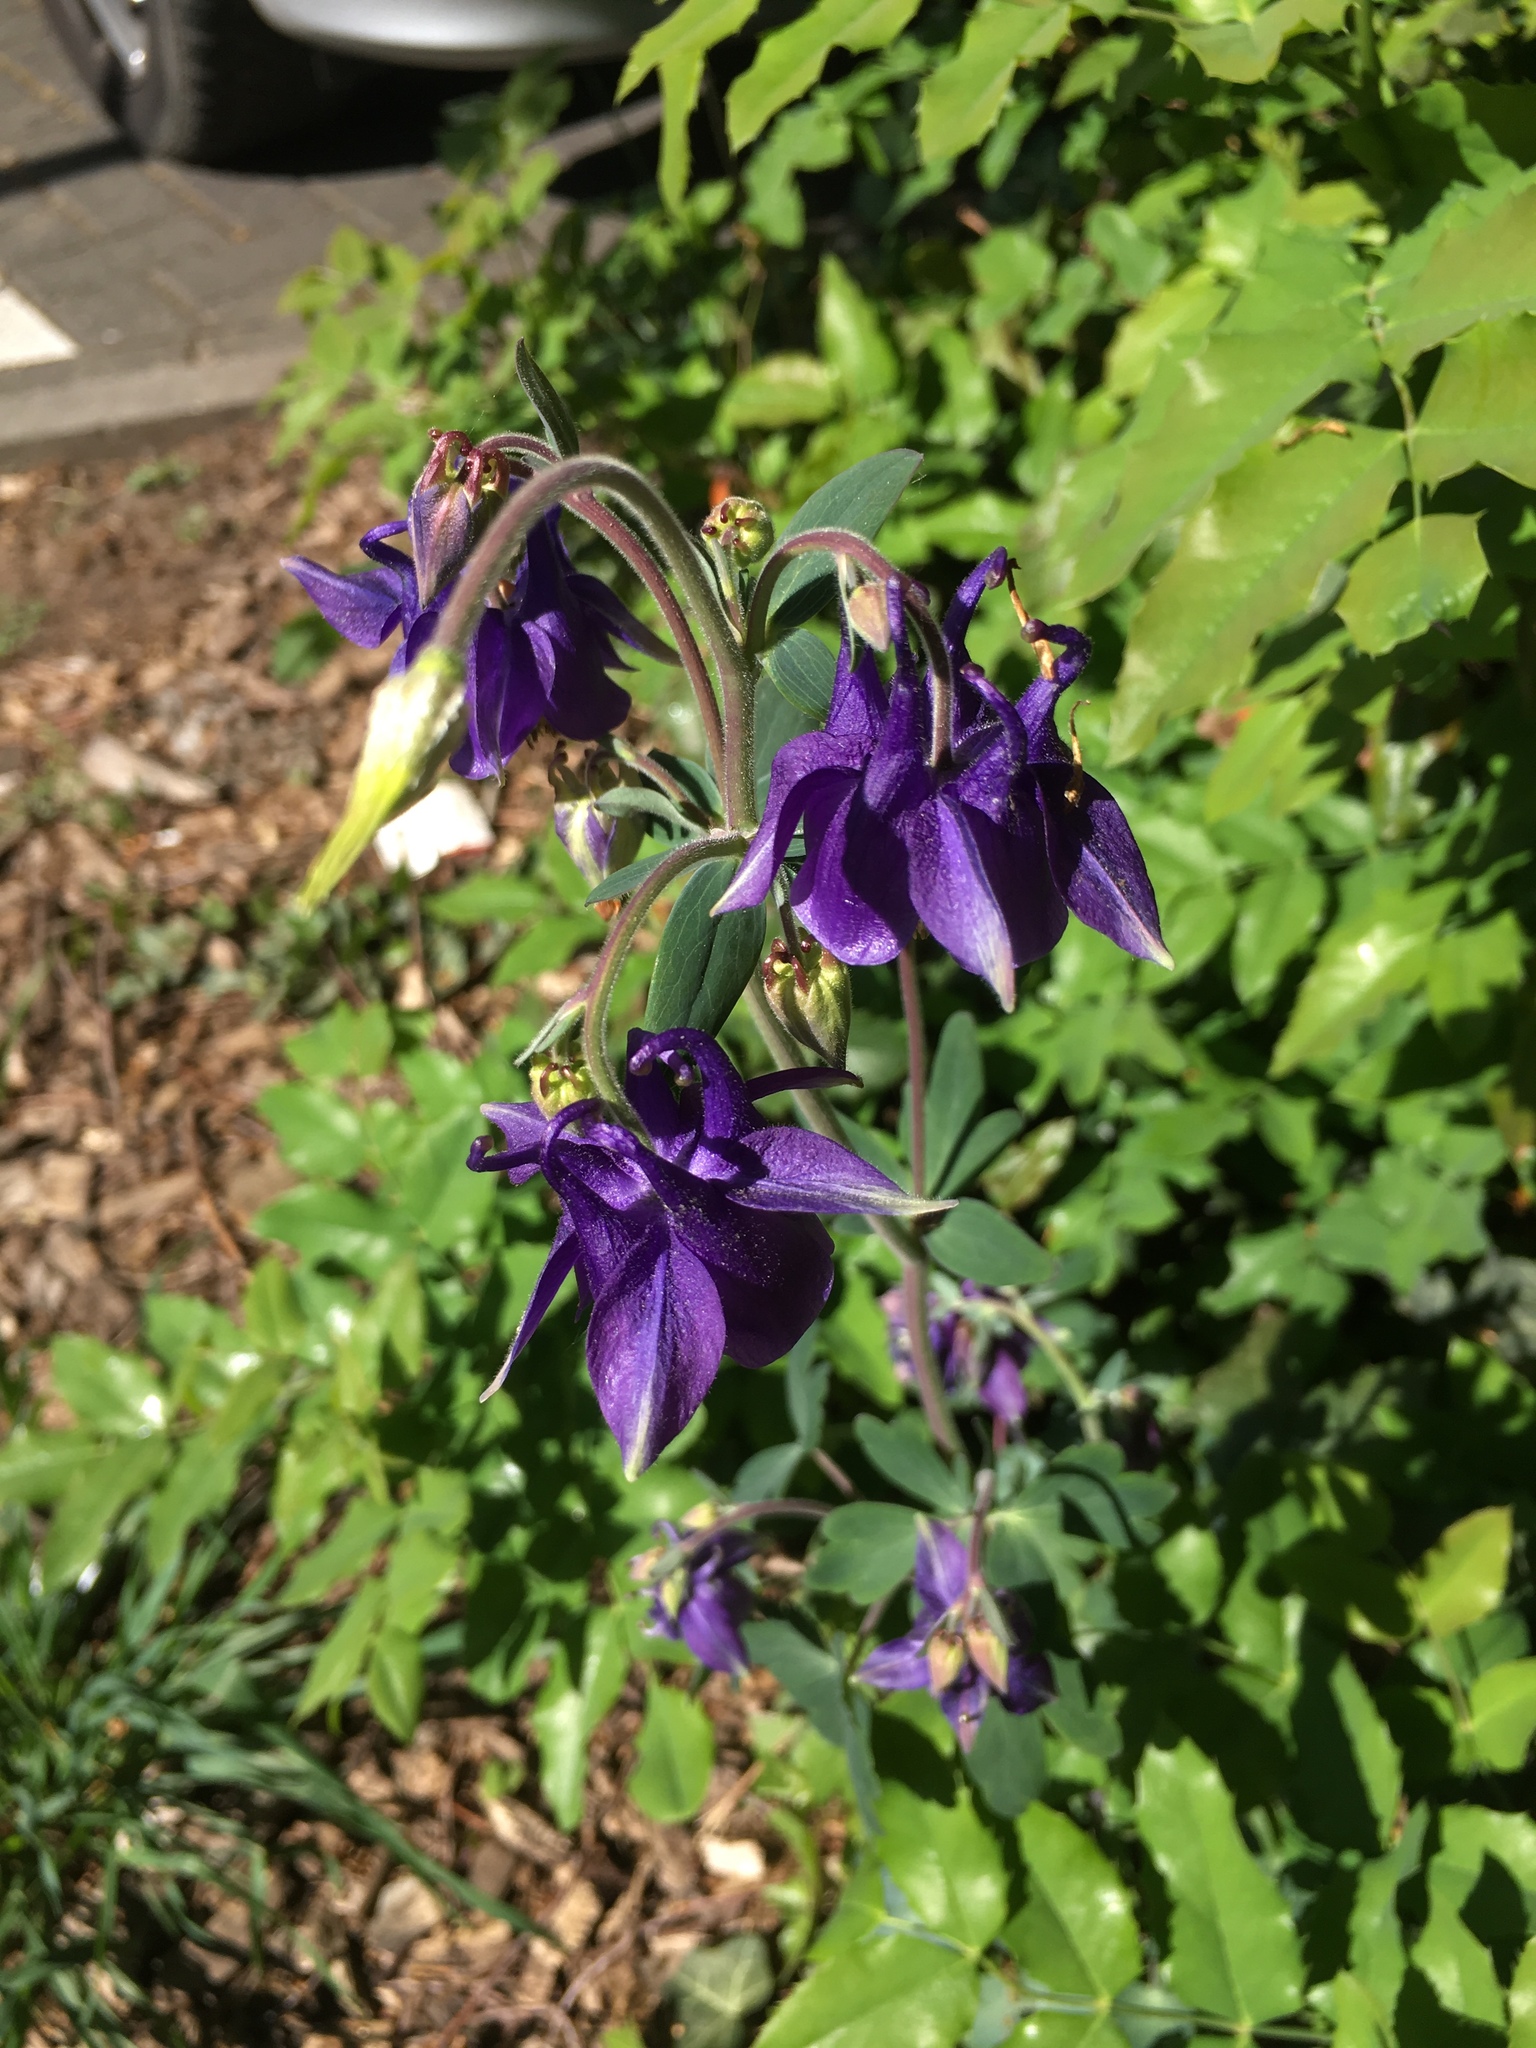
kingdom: Plantae
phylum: Tracheophyta
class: Magnoliopsida
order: Ranunculales
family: Ranunculaceae
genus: Aquilegia
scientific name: Aquilegia
